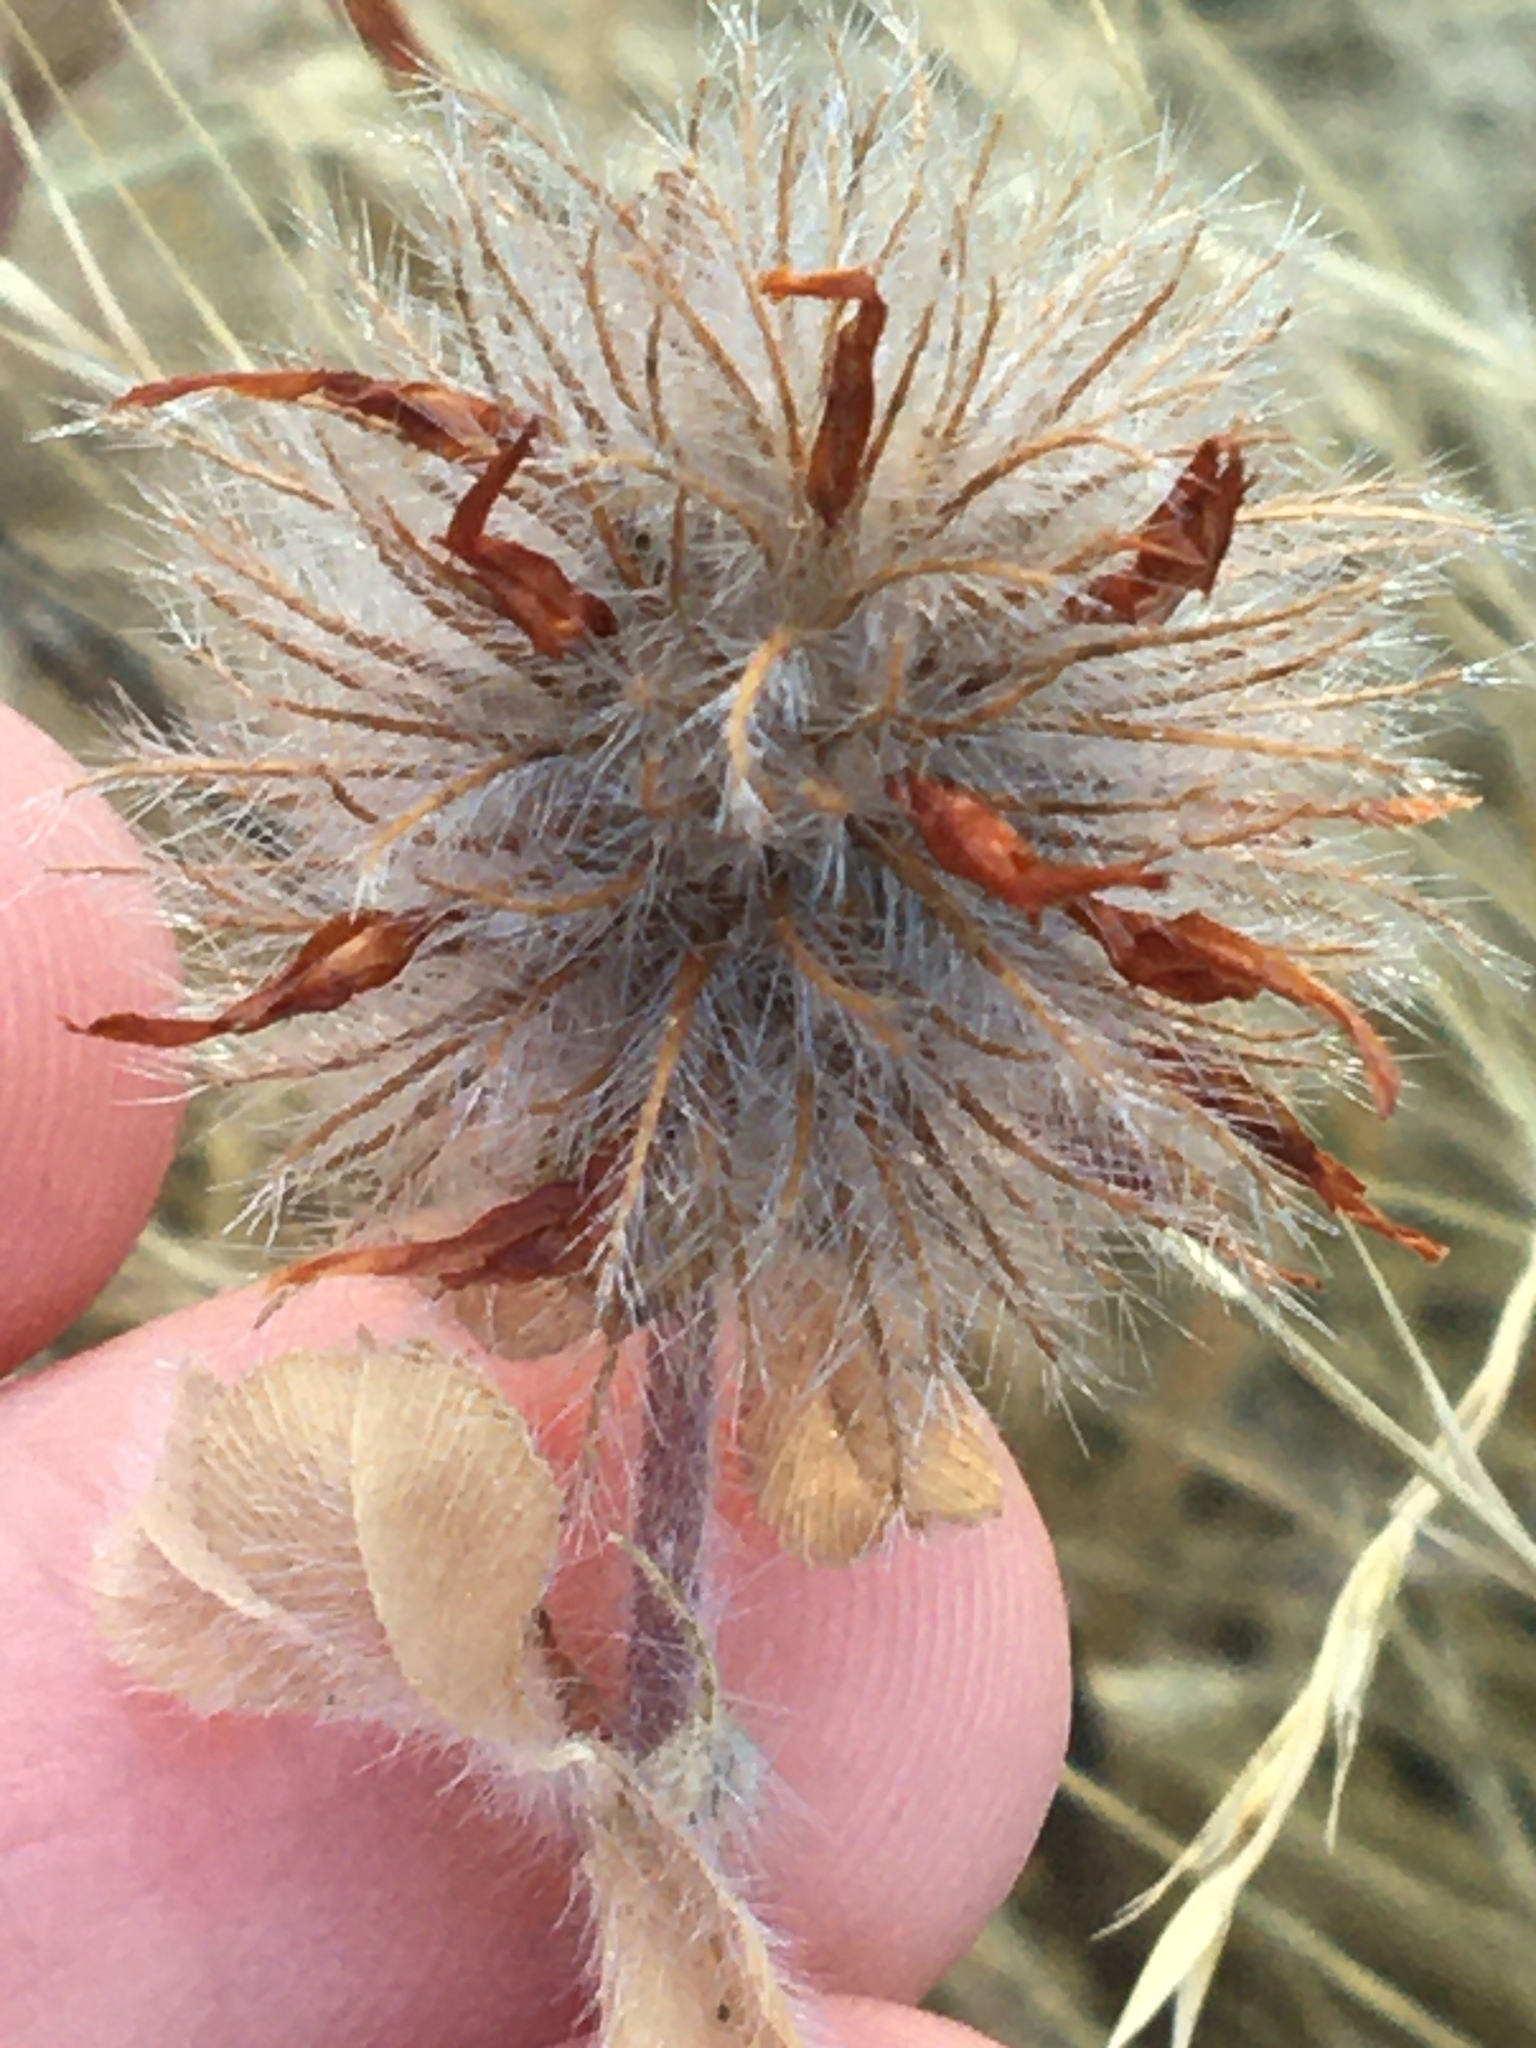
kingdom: Plantae
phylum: Tracheophyta
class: Magnoliopsida
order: Fabales
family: Fabaceae
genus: Trifolium
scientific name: Trifolium hirtum
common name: Rose clover
